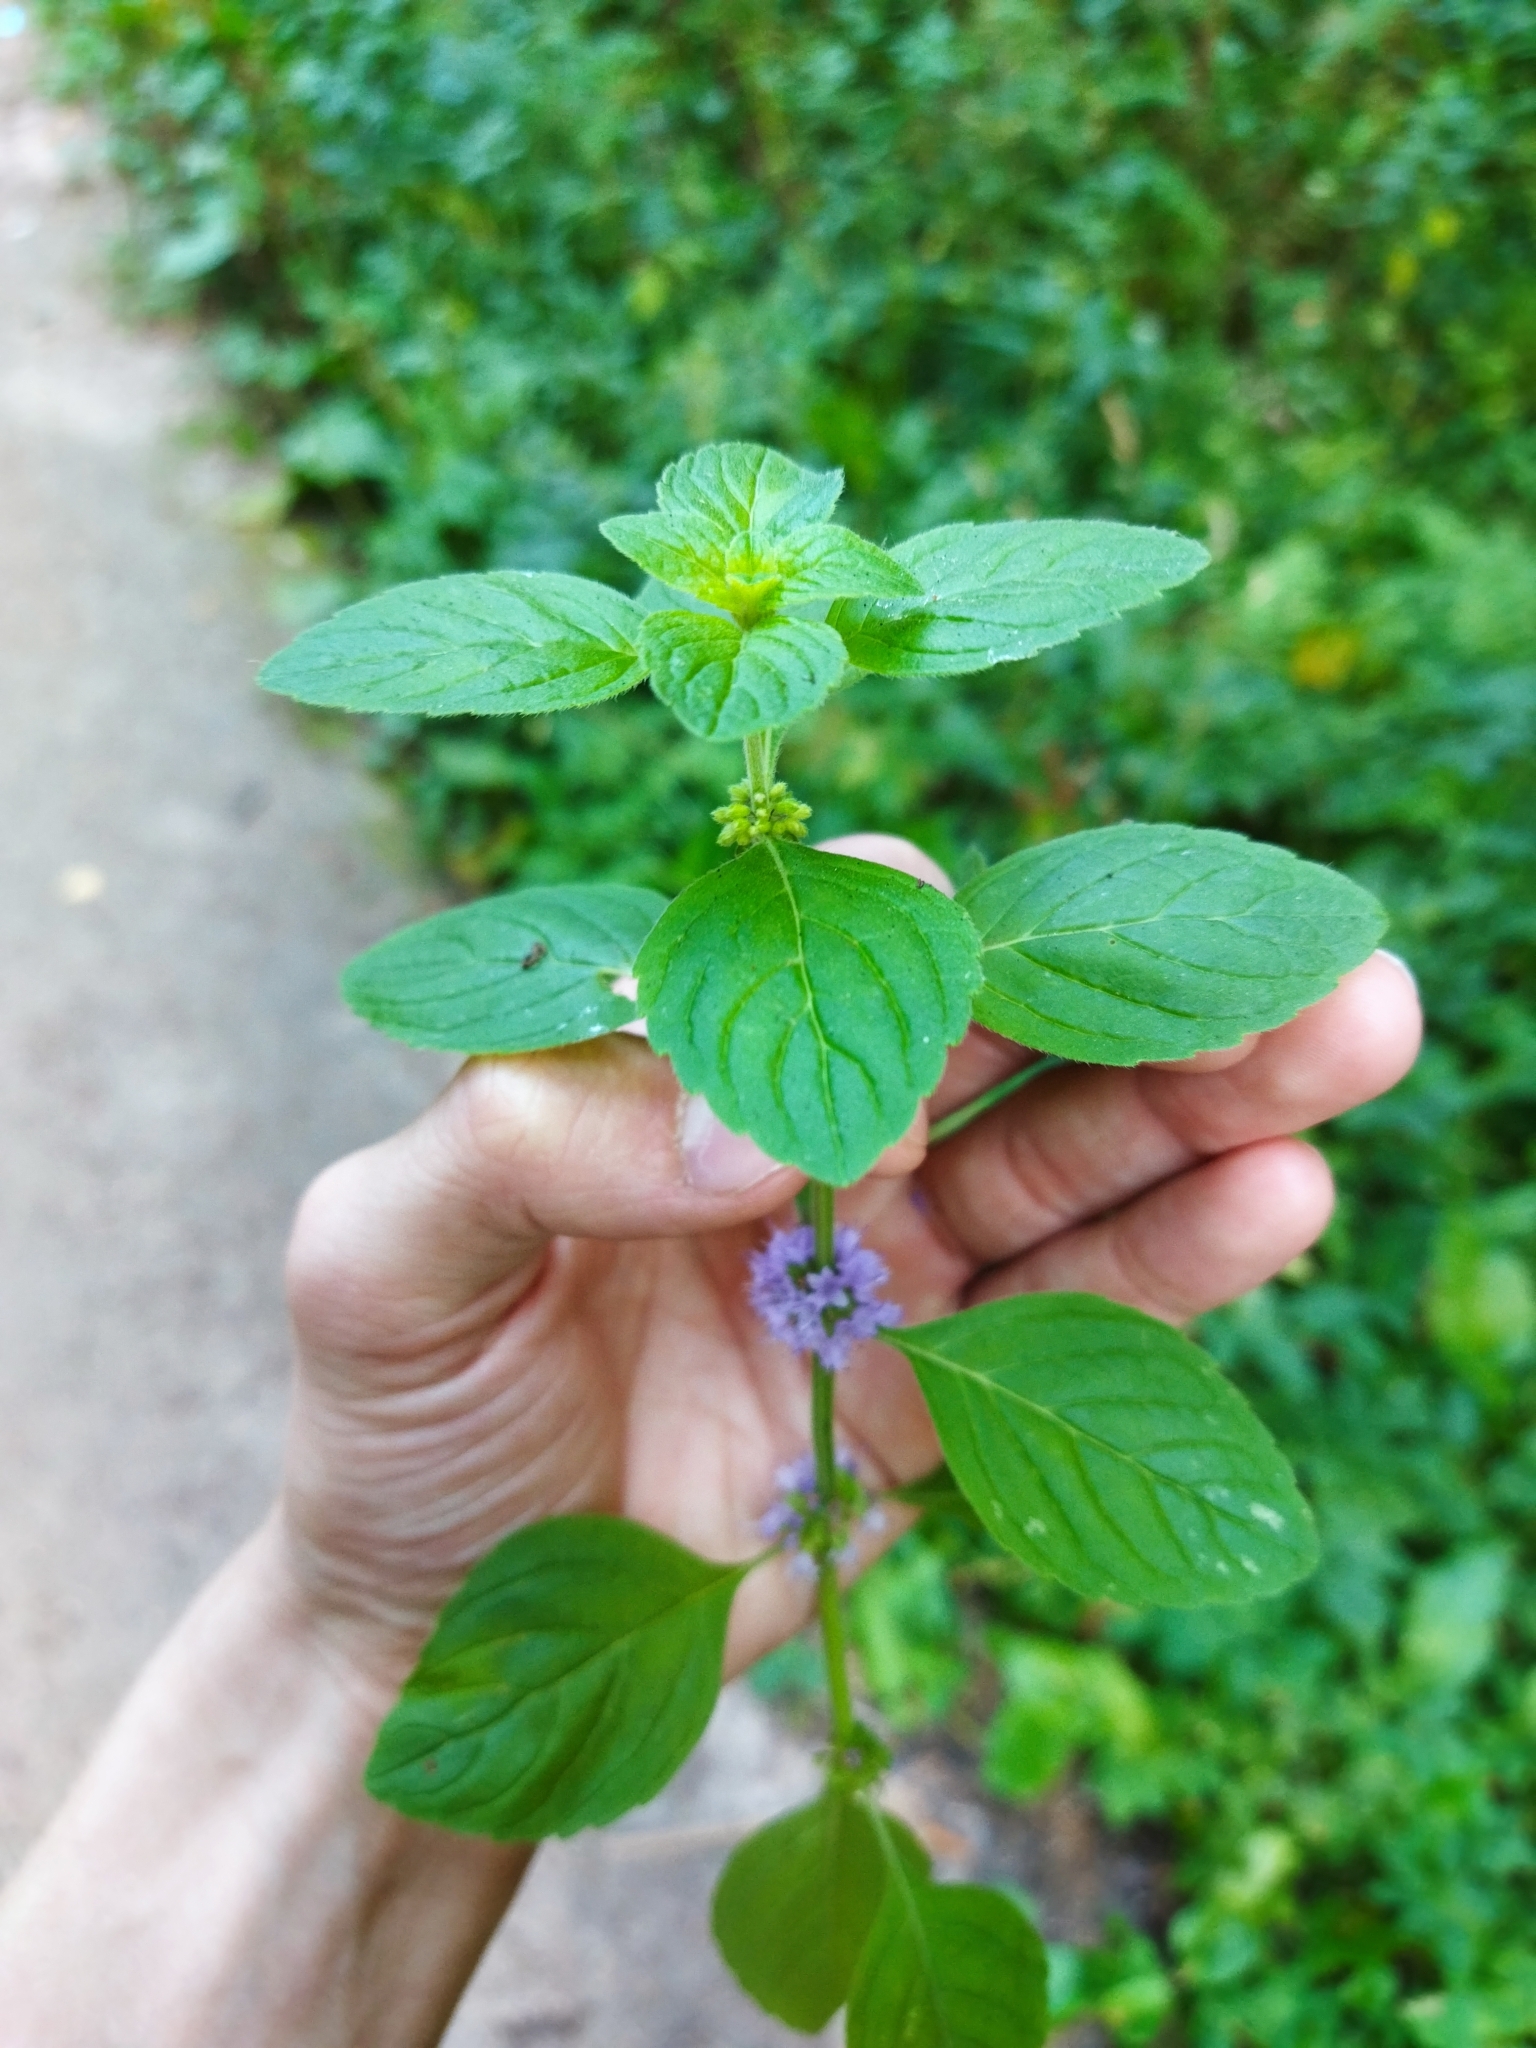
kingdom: Plantae
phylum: Tracheophyta
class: Magnoliopsida
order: Lamiales
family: Lamiaceae
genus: Mentha
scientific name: Mentha arvensis
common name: Corn mint
